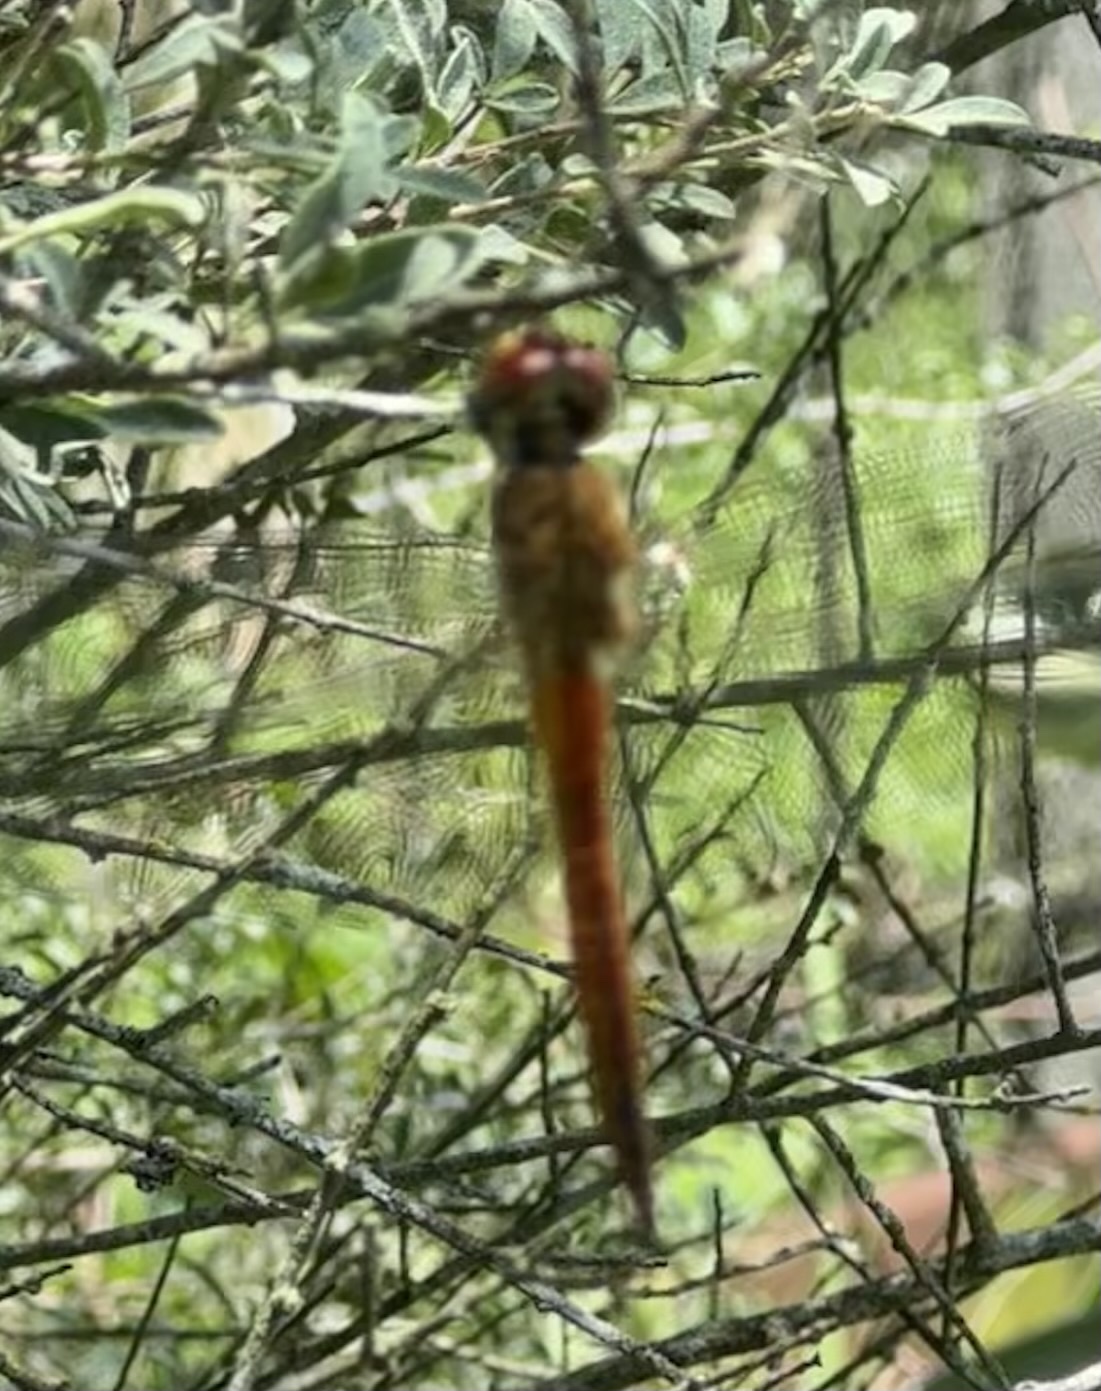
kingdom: Animalia
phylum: Arthropoda
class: Insecta
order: Odonata
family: Libellulidae
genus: Pantala
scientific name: Pantala flavescens
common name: Wandering glider
